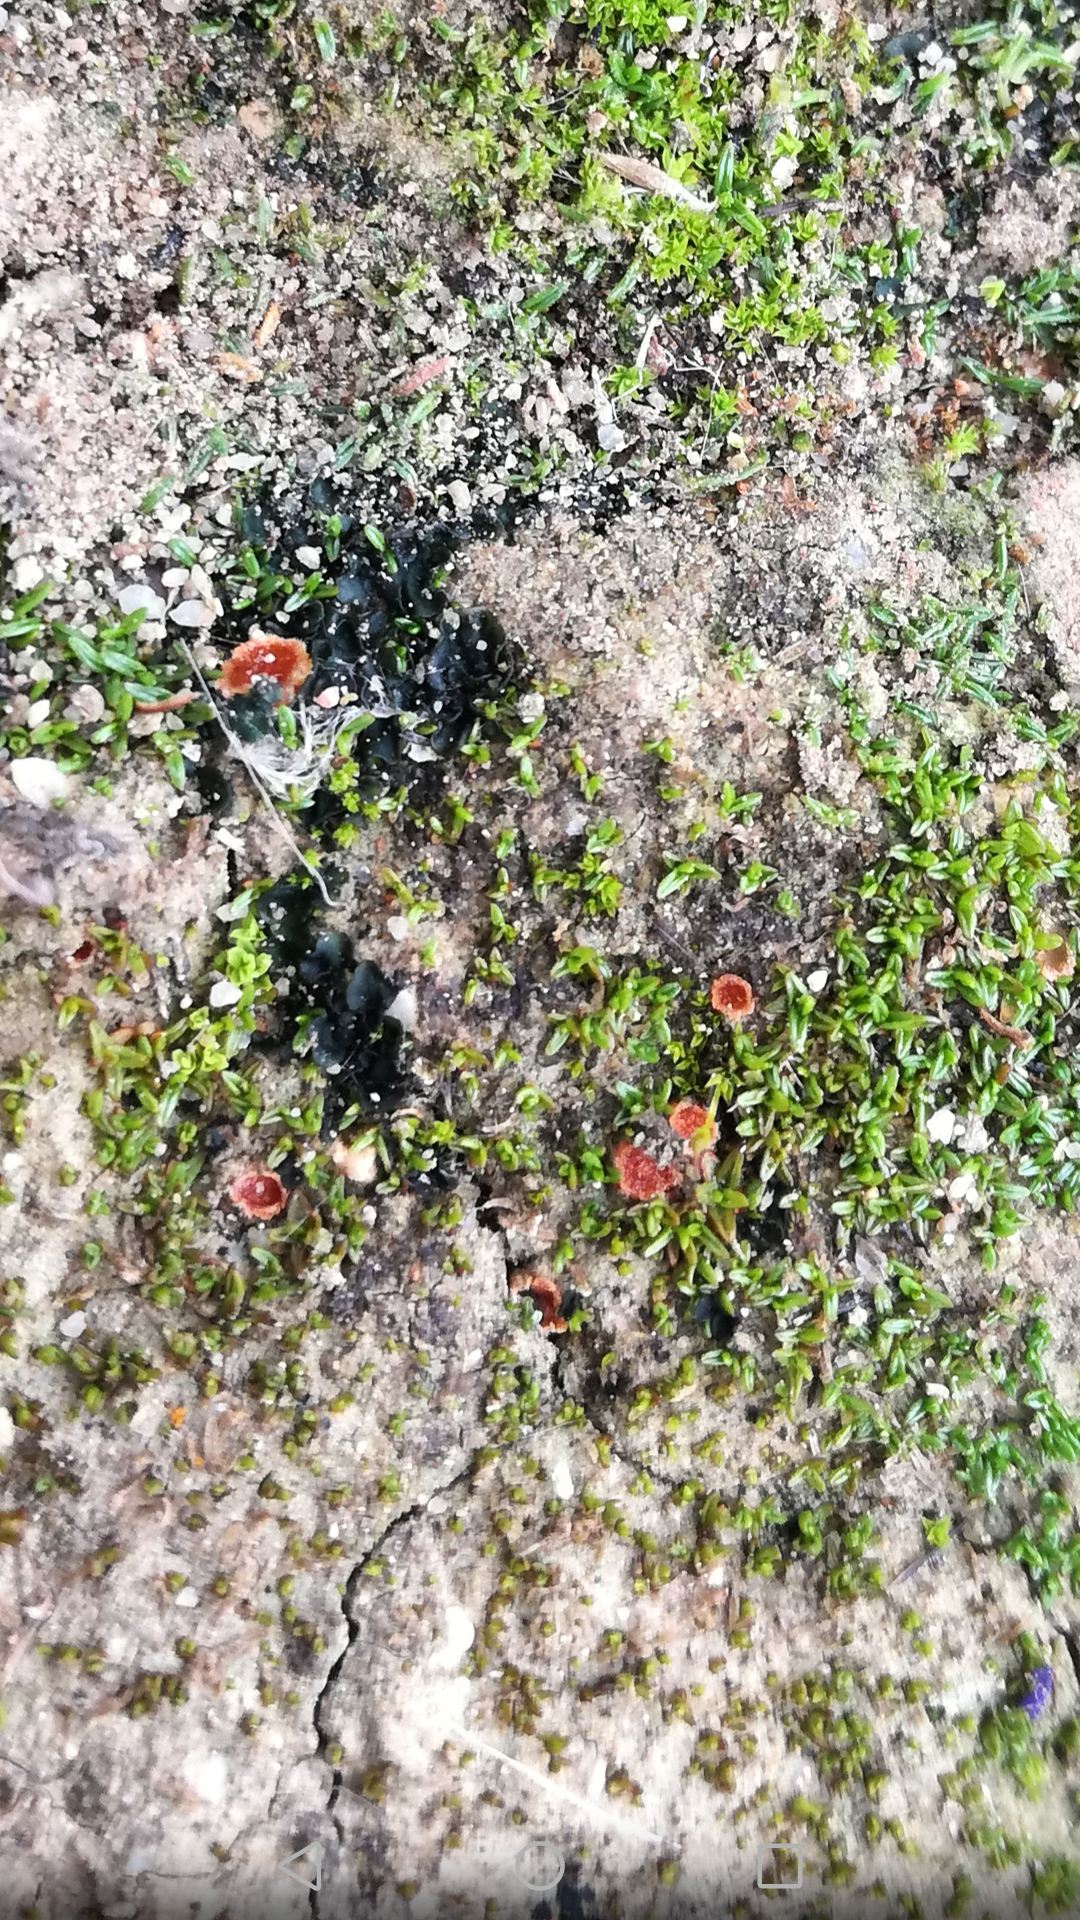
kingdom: Fungi
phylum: Ascomycota
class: Pezizomycetes
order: Pezizales
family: Pyronemataceae
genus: Lamprospora
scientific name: Lamprospora miniata
